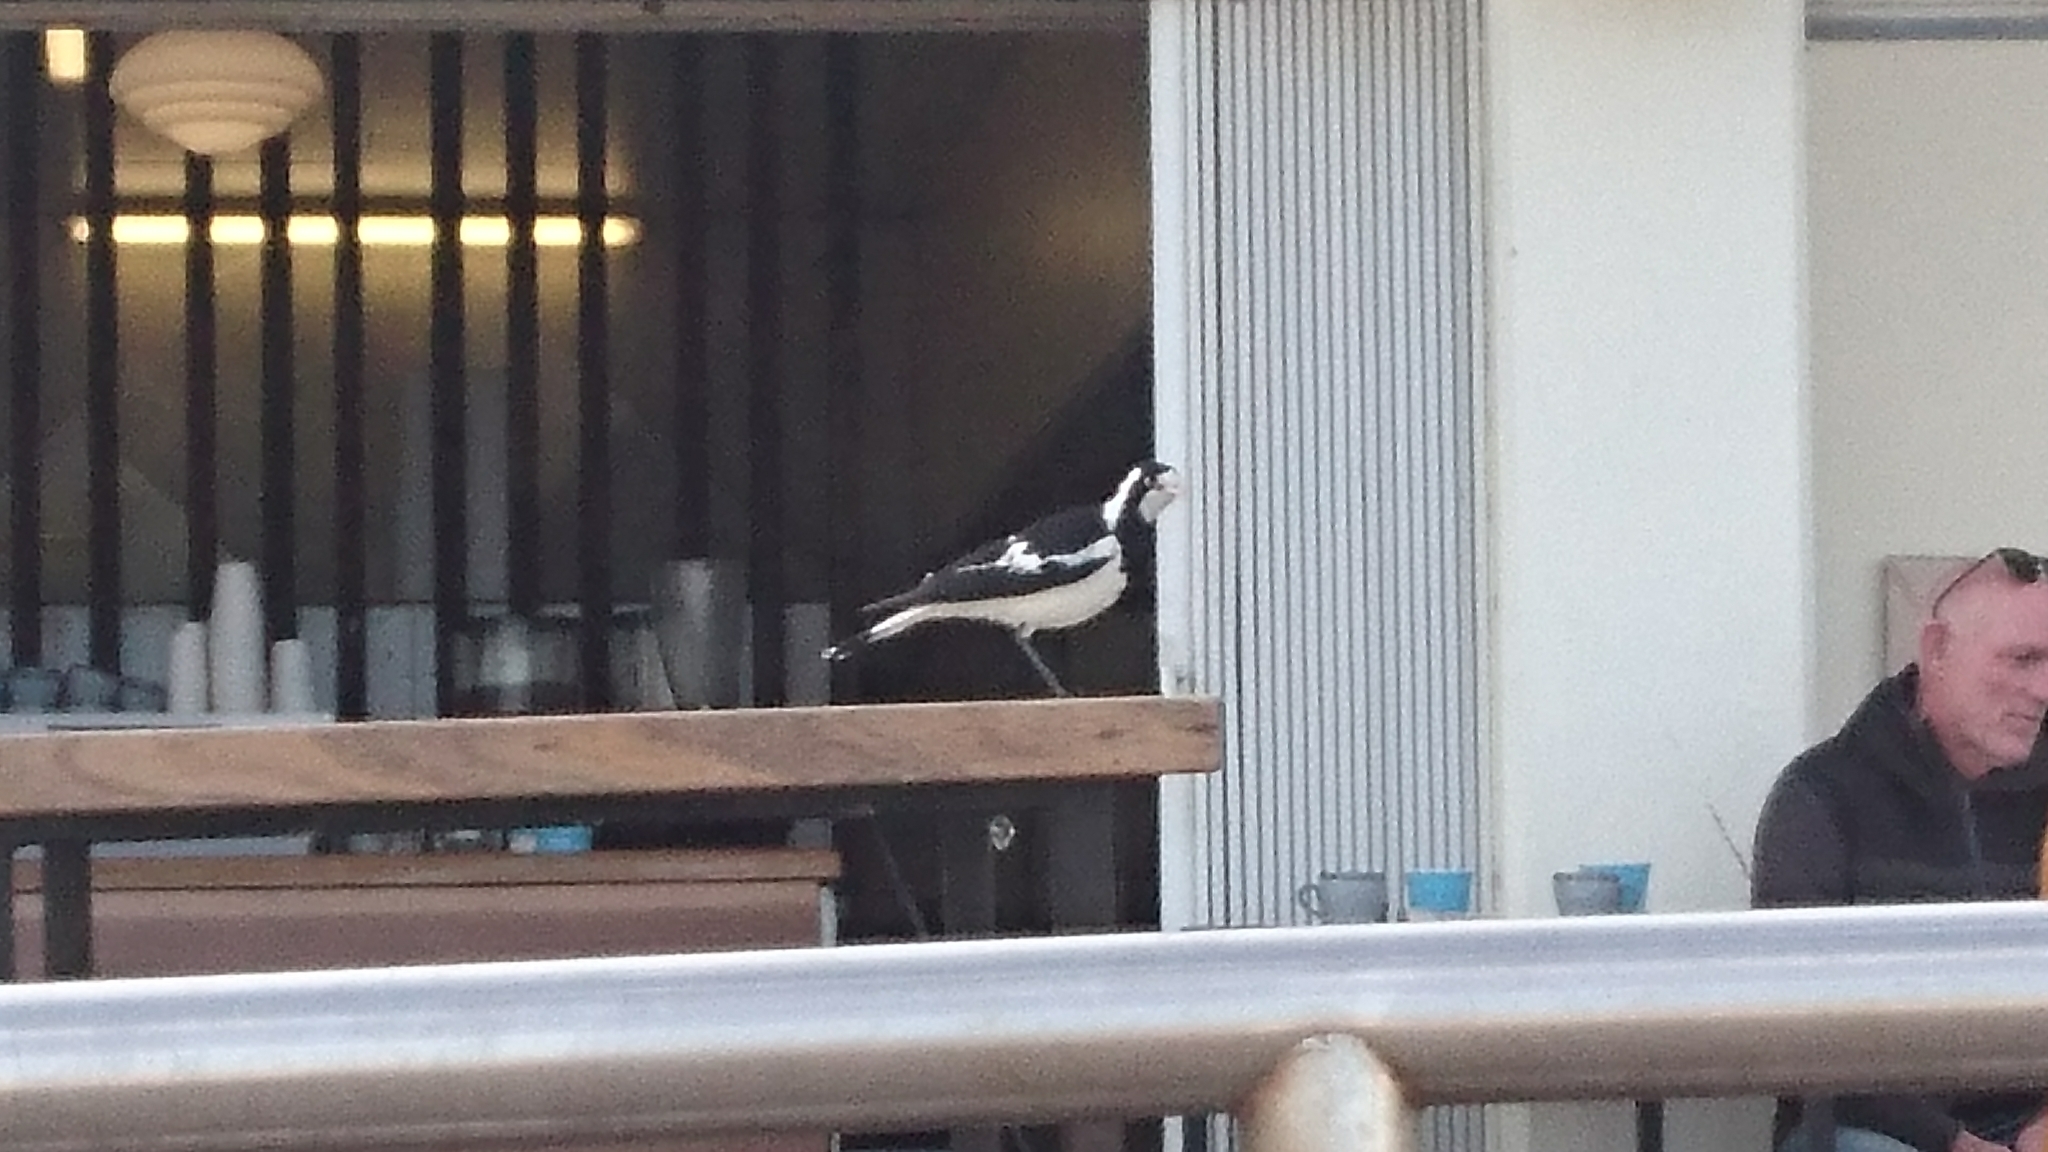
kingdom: Animalia
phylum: Chordata
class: Aves
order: Passeriformes
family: Monarchidae
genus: Grallina
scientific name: Grallina cyanoleuca
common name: Magpie-lark
